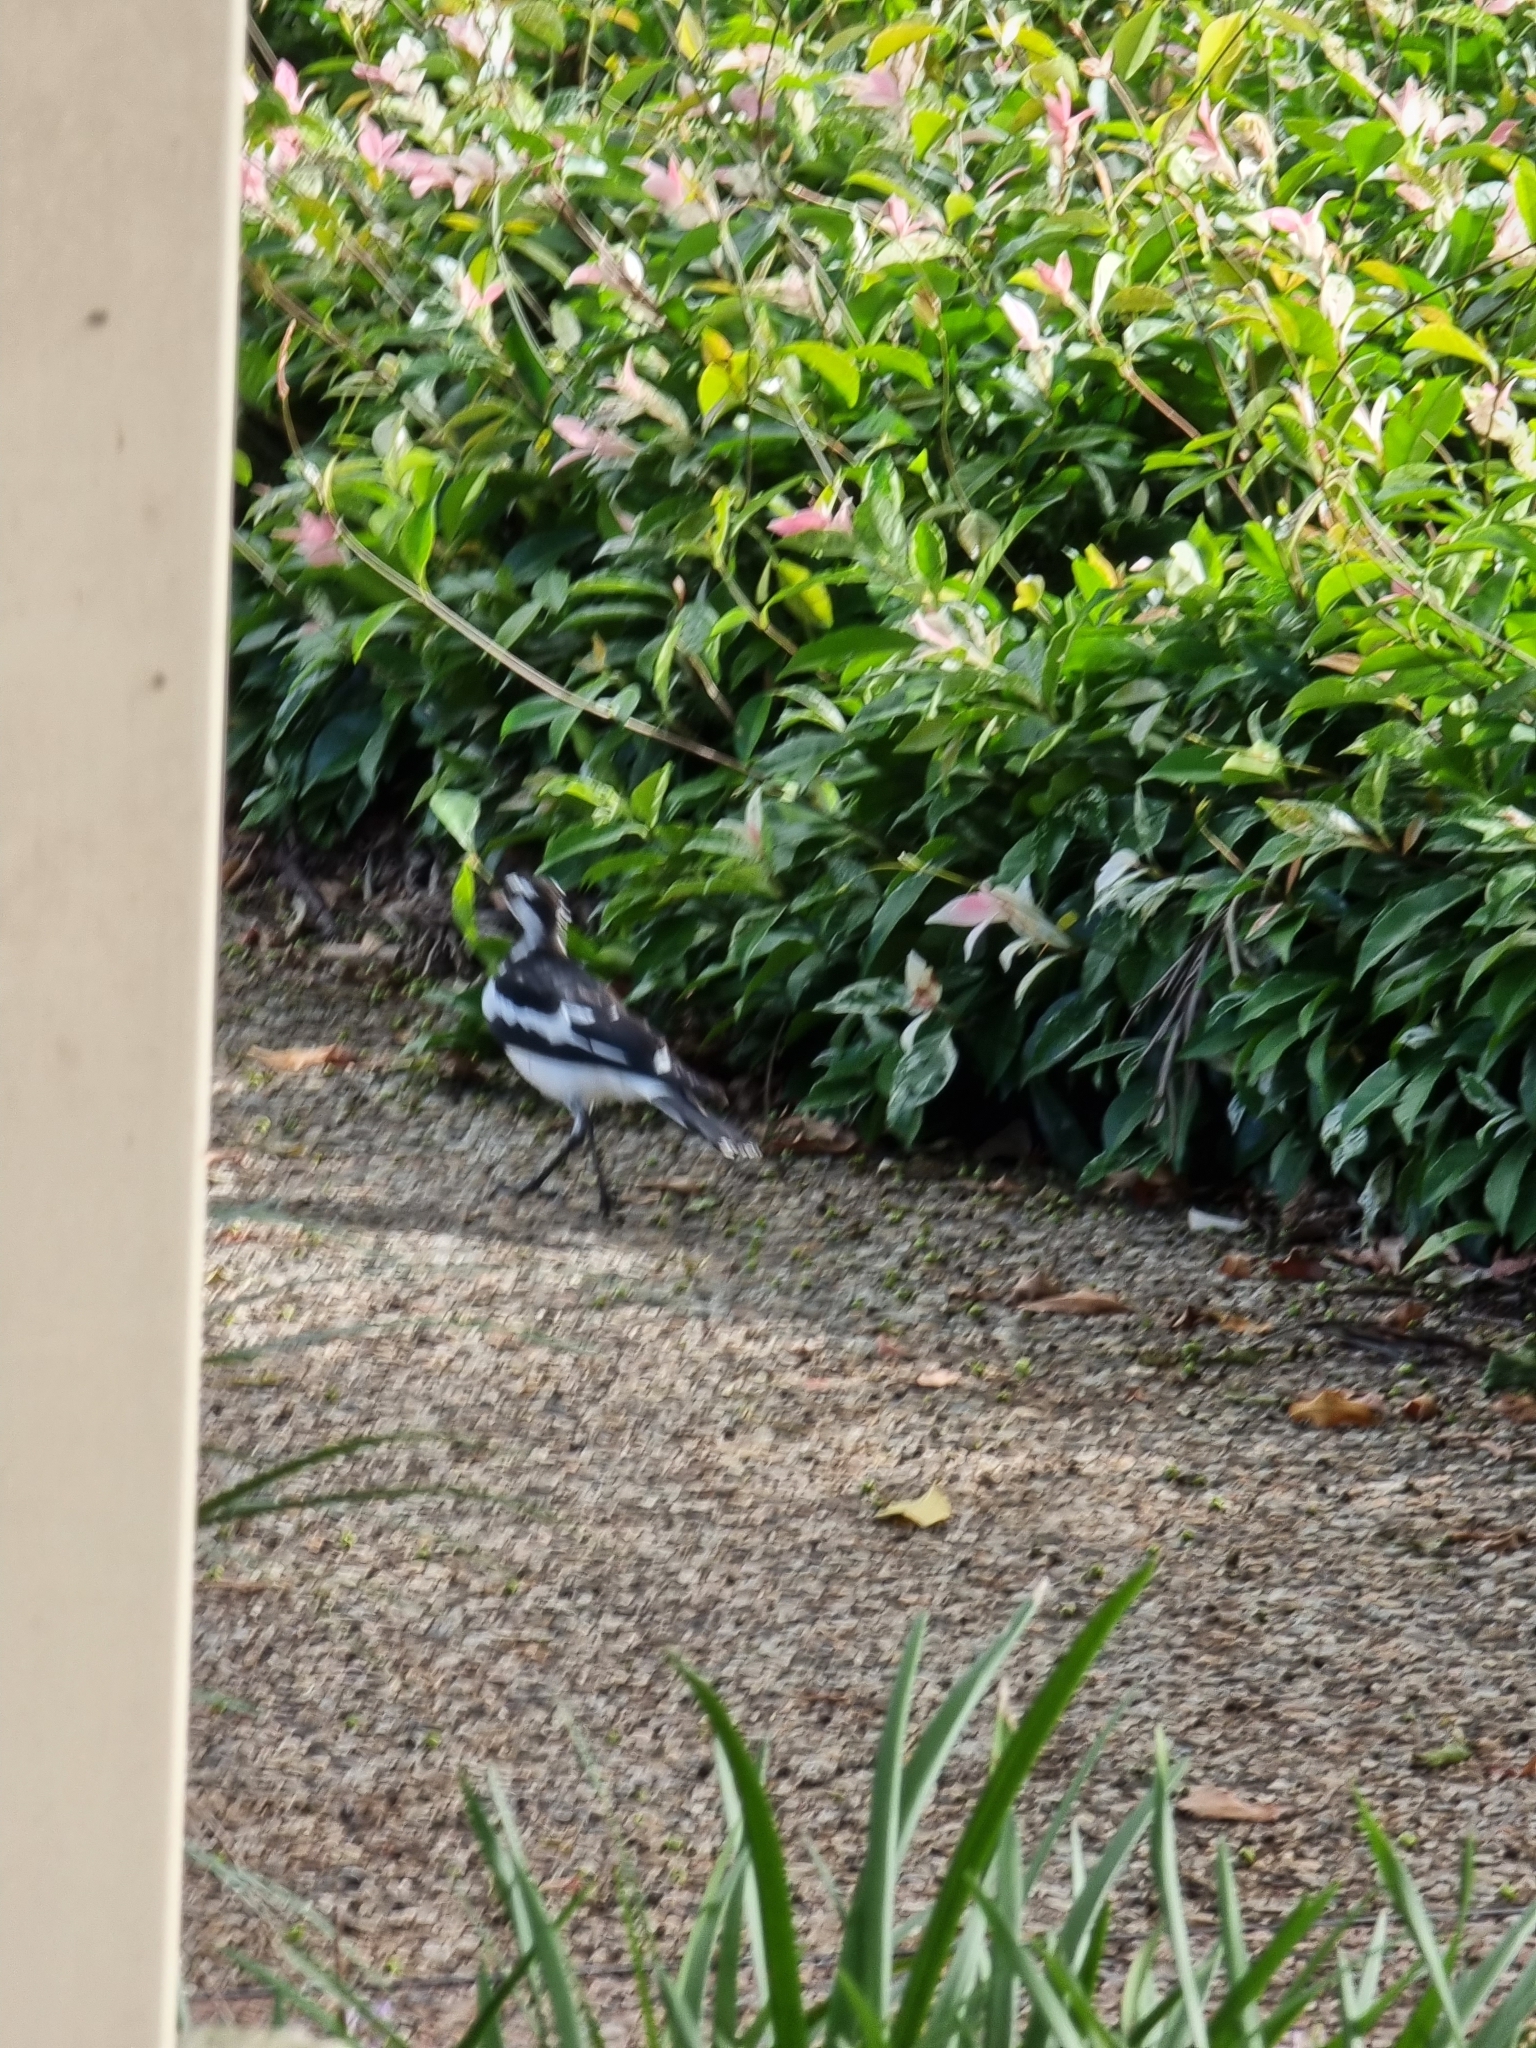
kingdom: Animalia
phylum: Chordata
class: Aves
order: Passeriformes
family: Monarchidae
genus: Grallina
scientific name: Grallina cyanoleuca
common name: Magpie-lark
